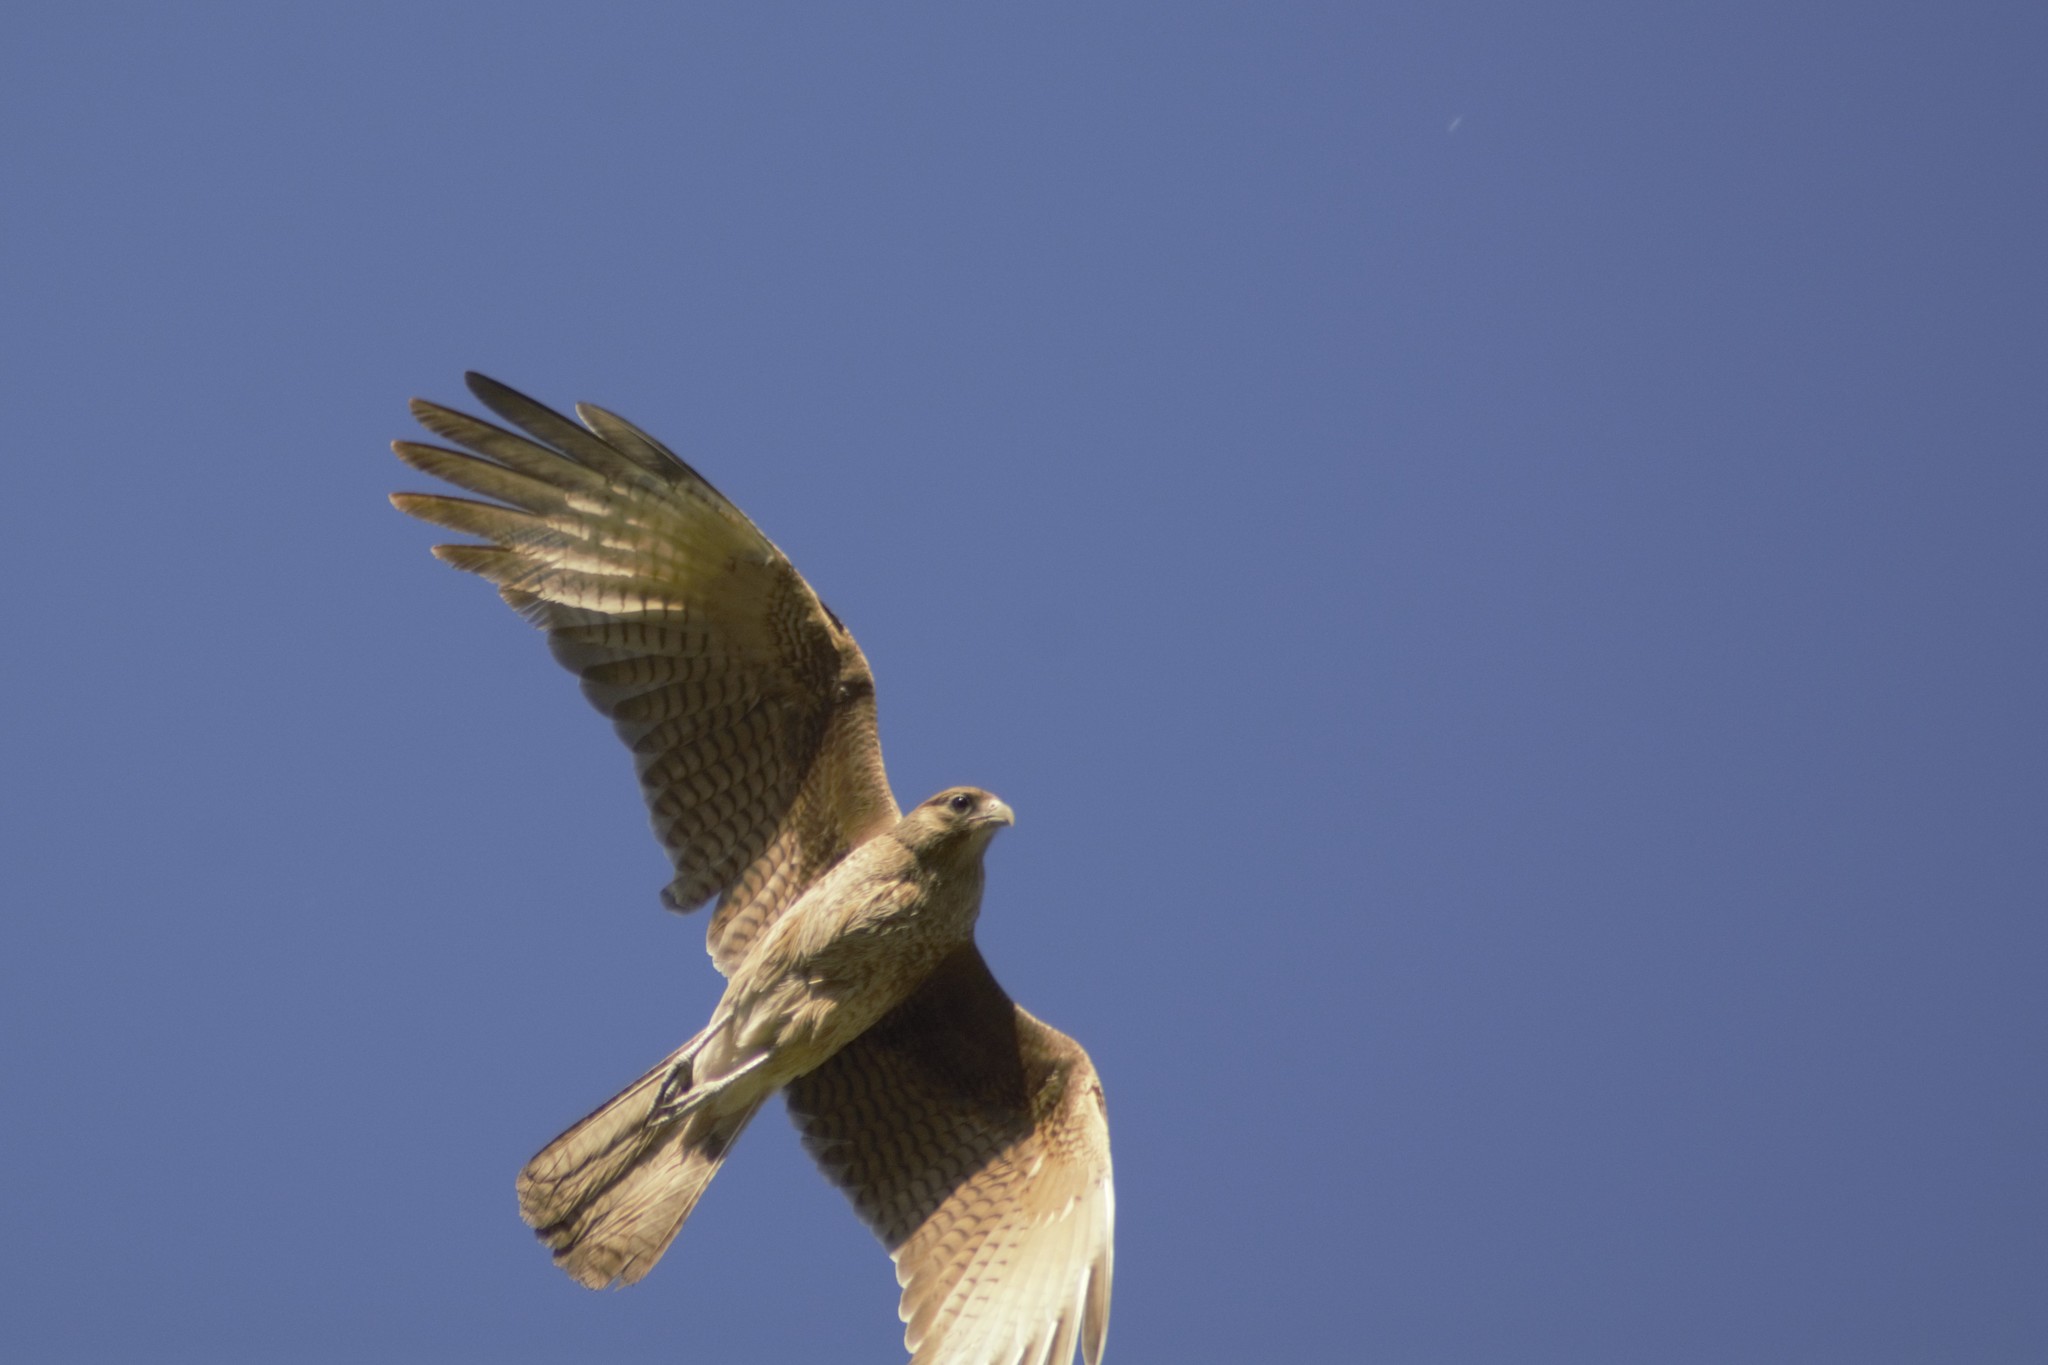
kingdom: Animalia
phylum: Chordata
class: Aves
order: Falconiformes
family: Falconidae
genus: Daptrius
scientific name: Daptrius
